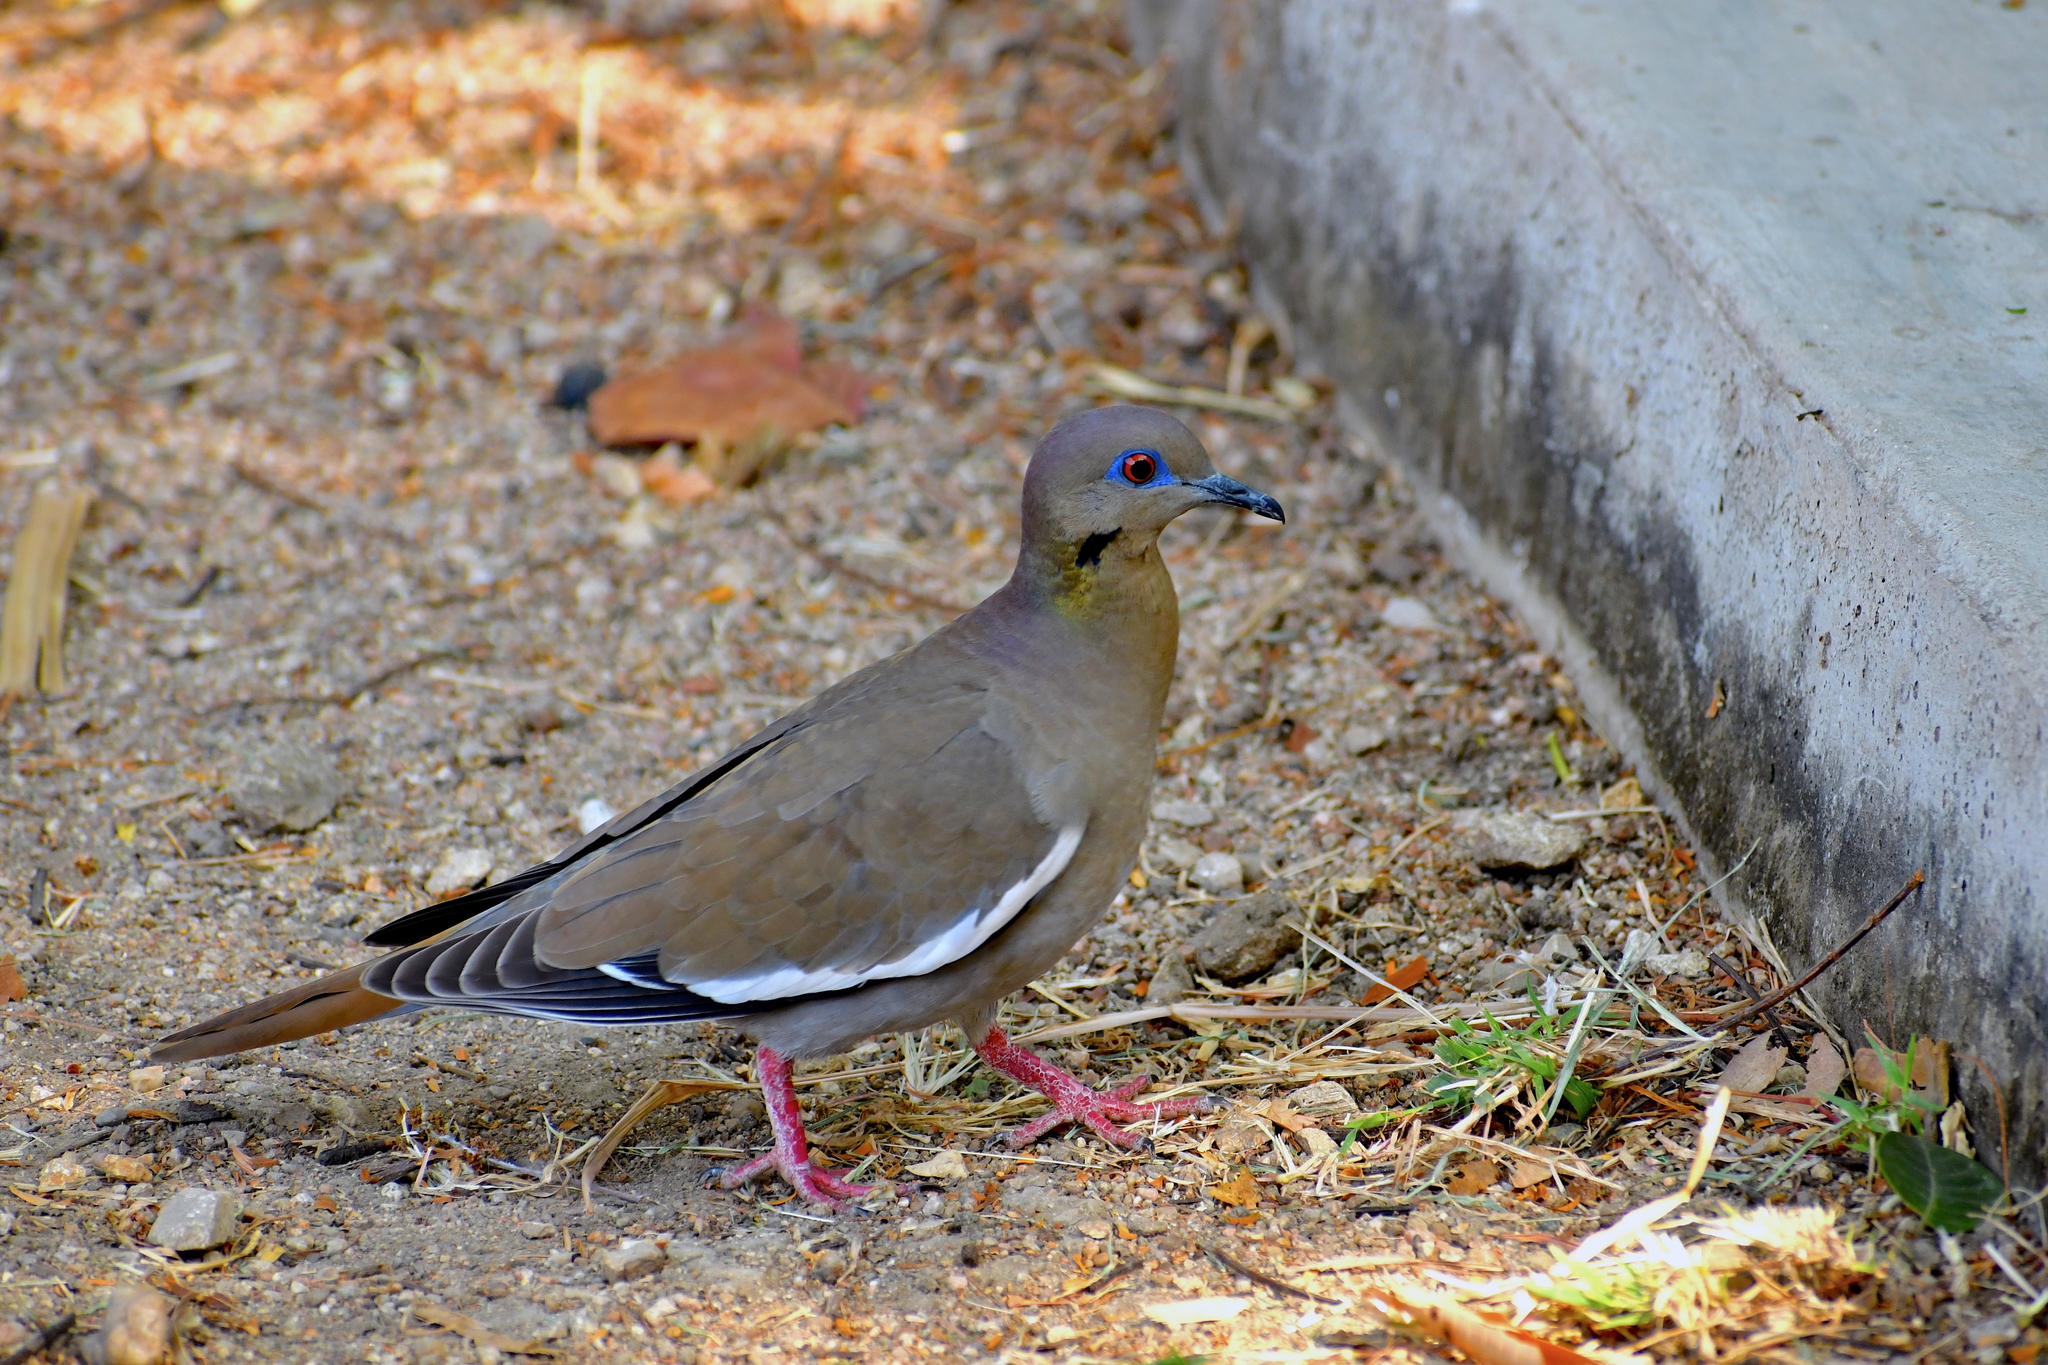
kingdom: Animalia
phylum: Chordata
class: Aves
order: Columbiformes
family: Columbidae
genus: Zenaida
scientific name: Zenaida asiatica
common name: White-winged dove
